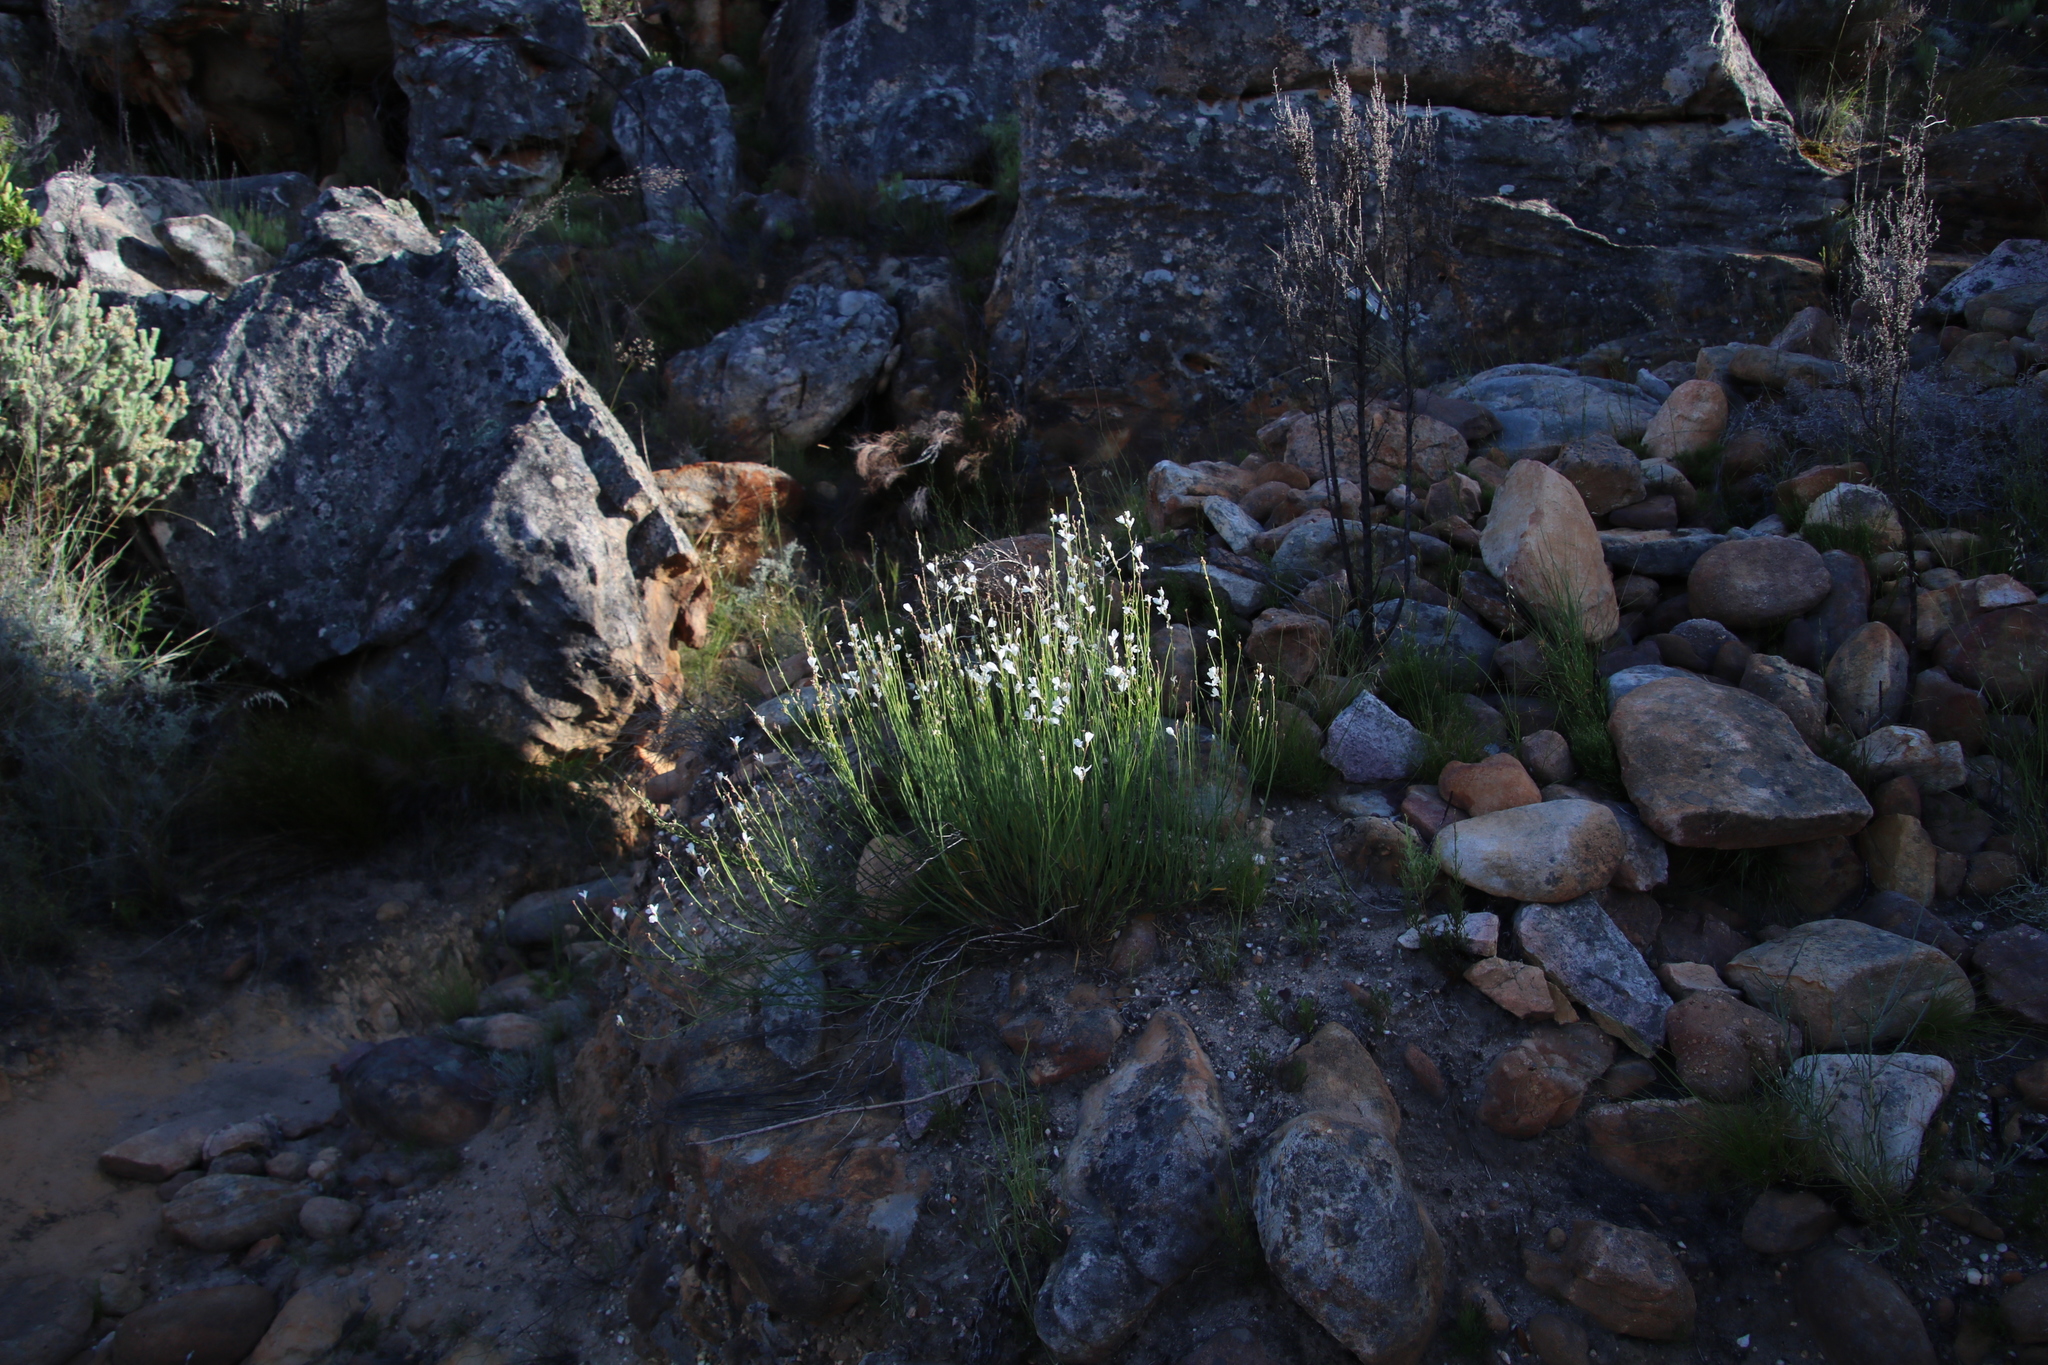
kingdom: Plantae
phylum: Tracheophyta
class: Magnoliopsida
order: Brassicales
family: Brassicaceae
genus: Heliophila
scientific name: Heliophila juncea
